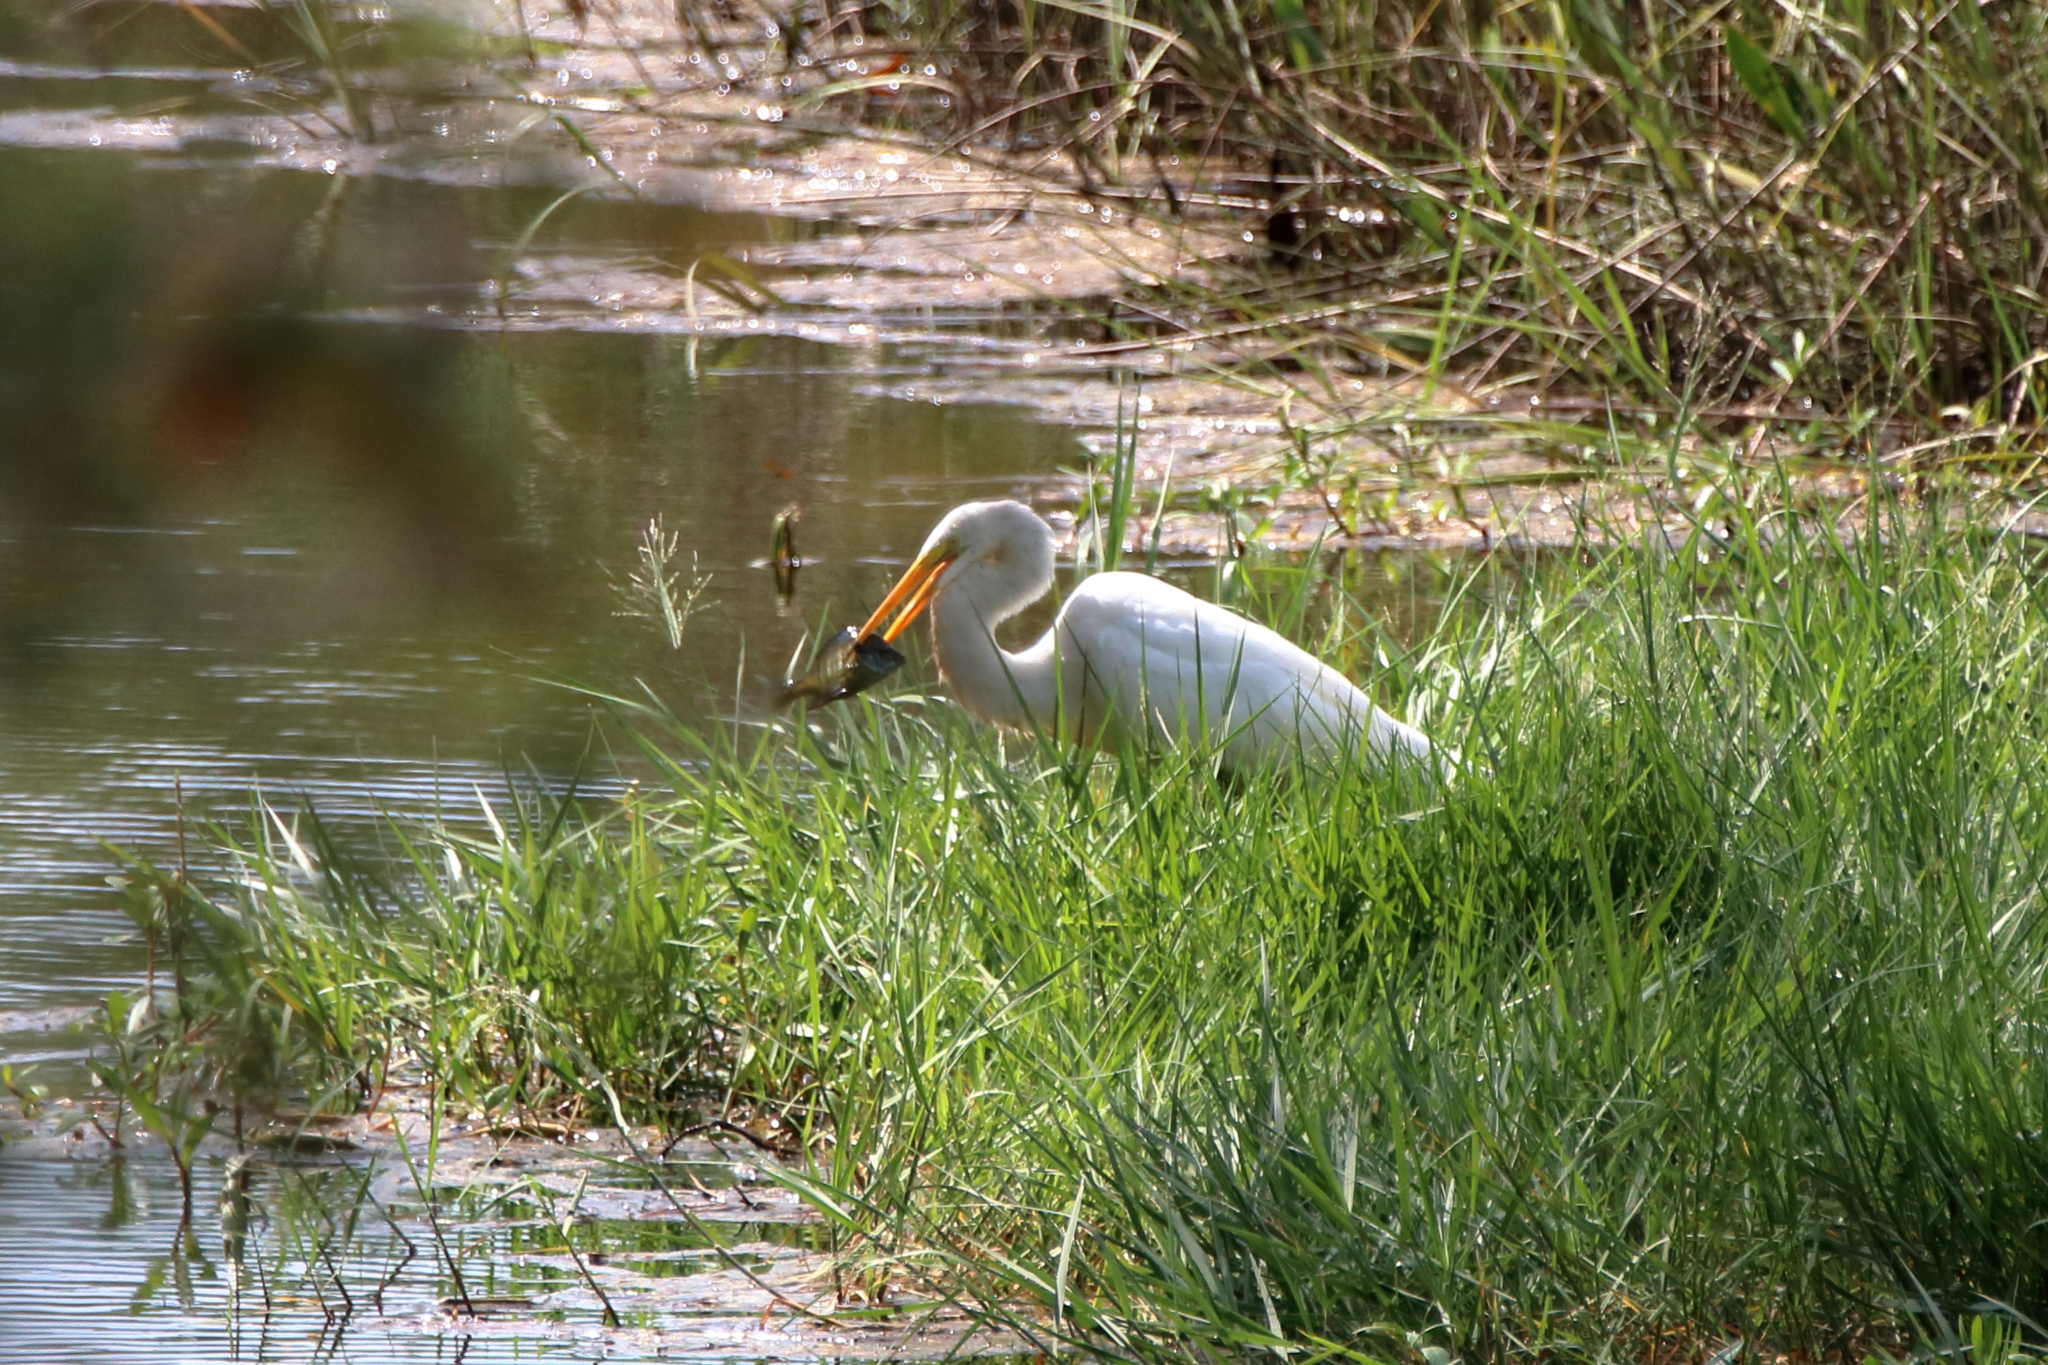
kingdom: Animalia
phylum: Chordata
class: Aves
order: Pelecaniformes
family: Ardeidae
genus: Ardea
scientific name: Ardea alba
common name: Great egret
